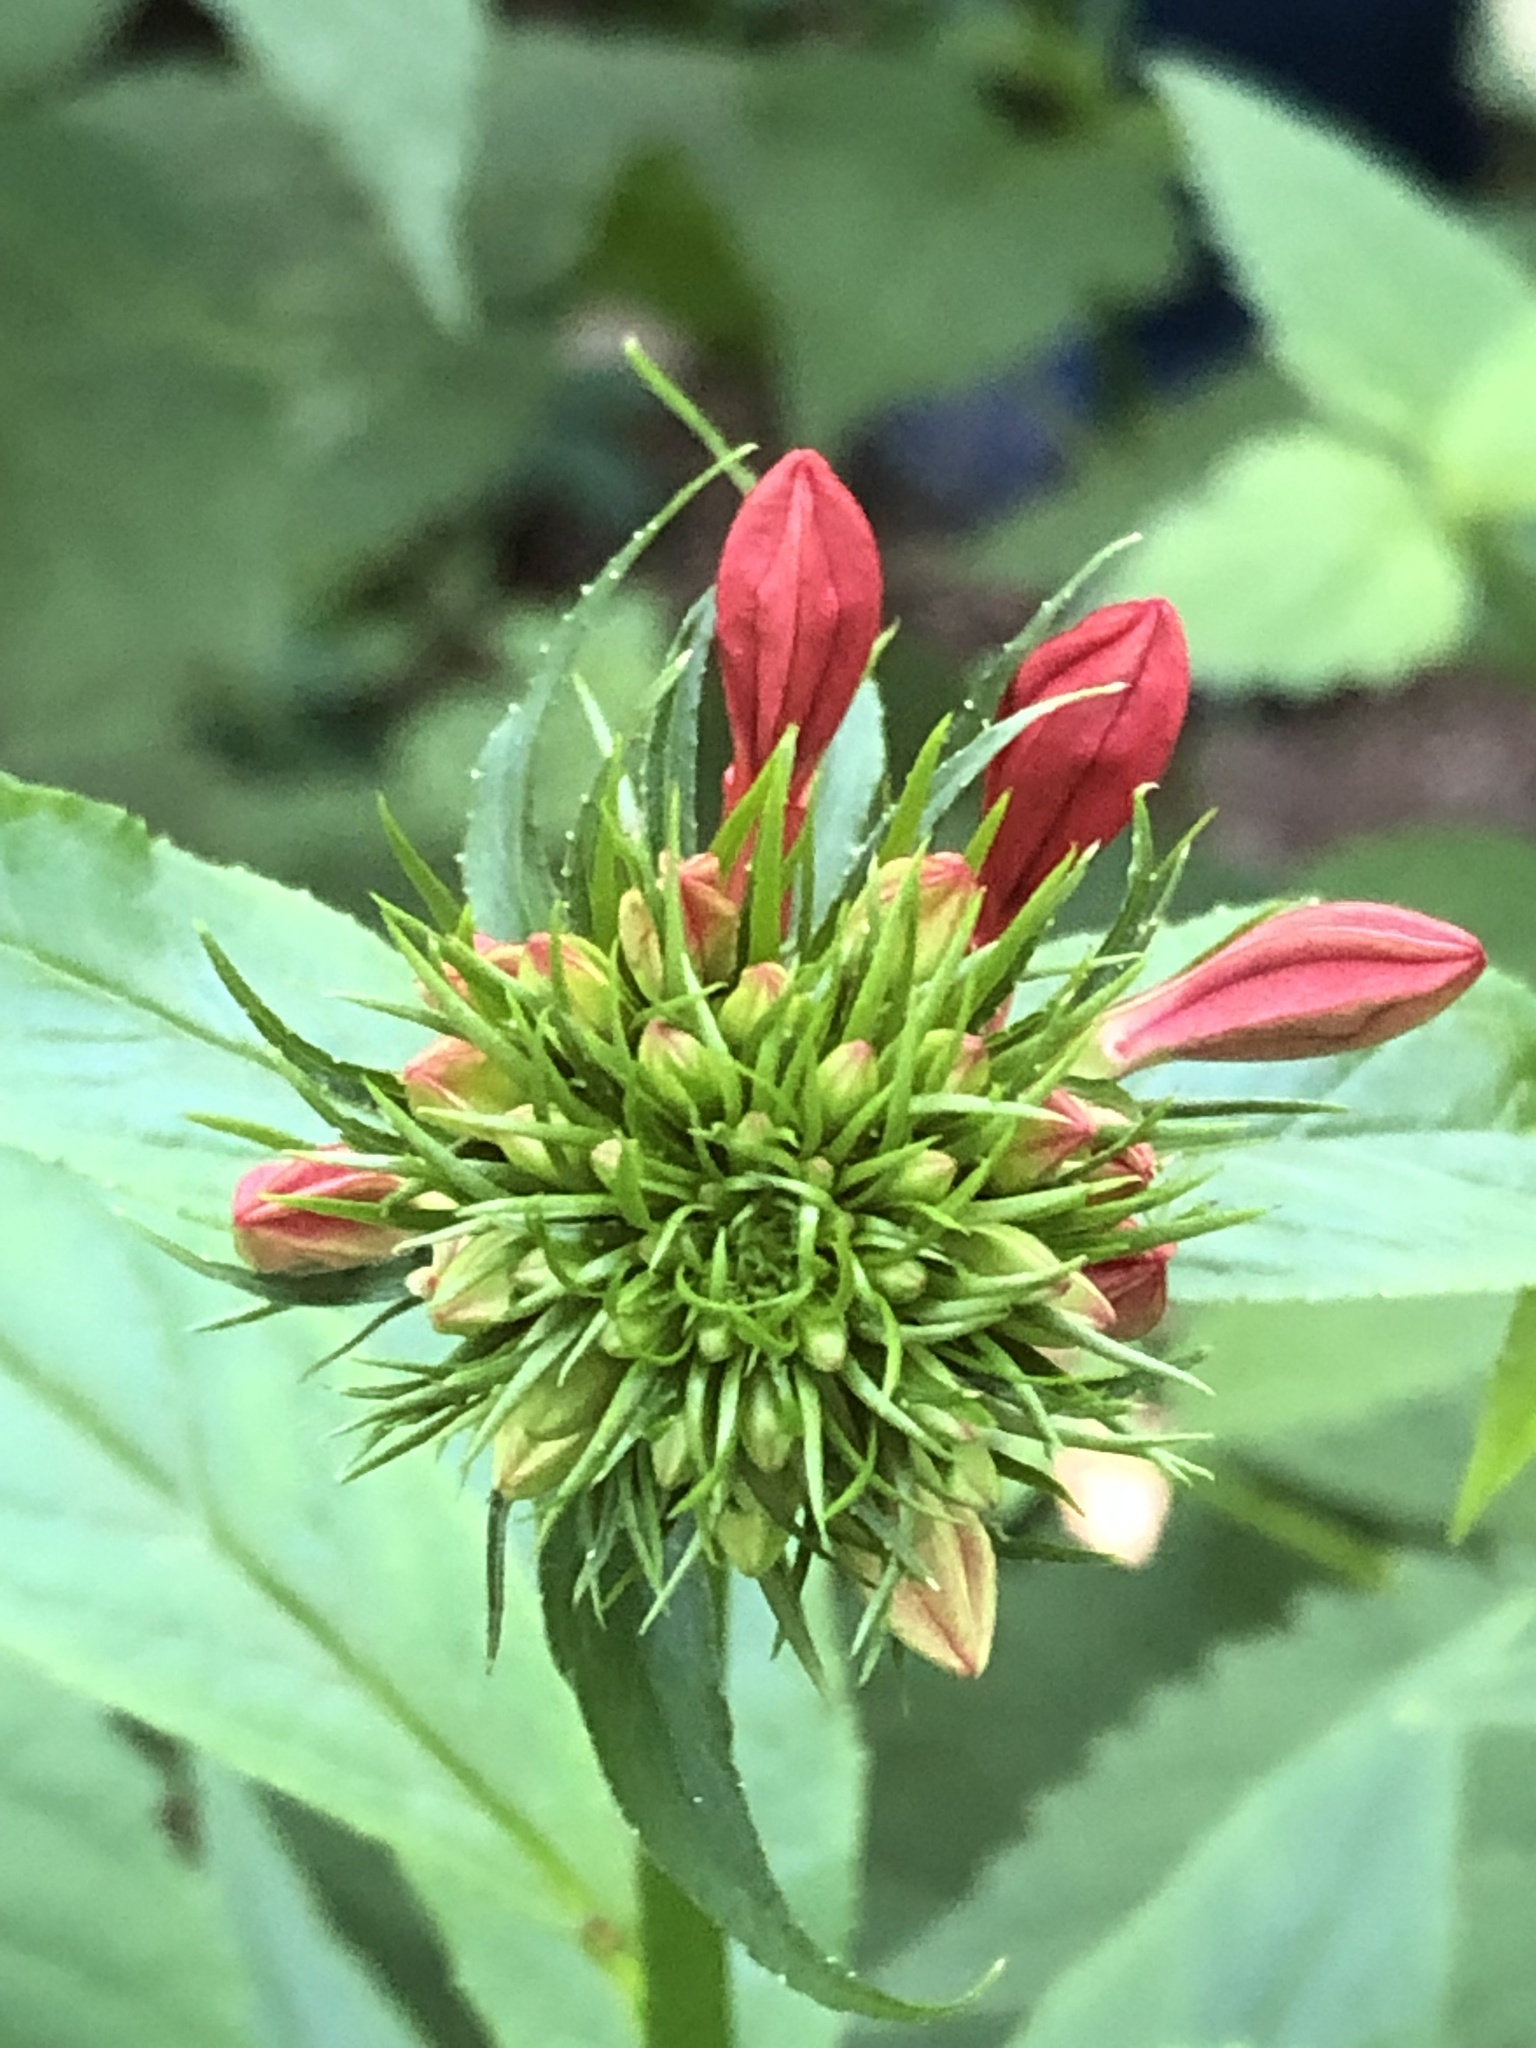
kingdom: Plantae
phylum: Tracheophyta
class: Magnoliopsida
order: Asterales
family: Campanulaceae
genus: Lobelia
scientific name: Lobelia cardinalis
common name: Cardinal flower
